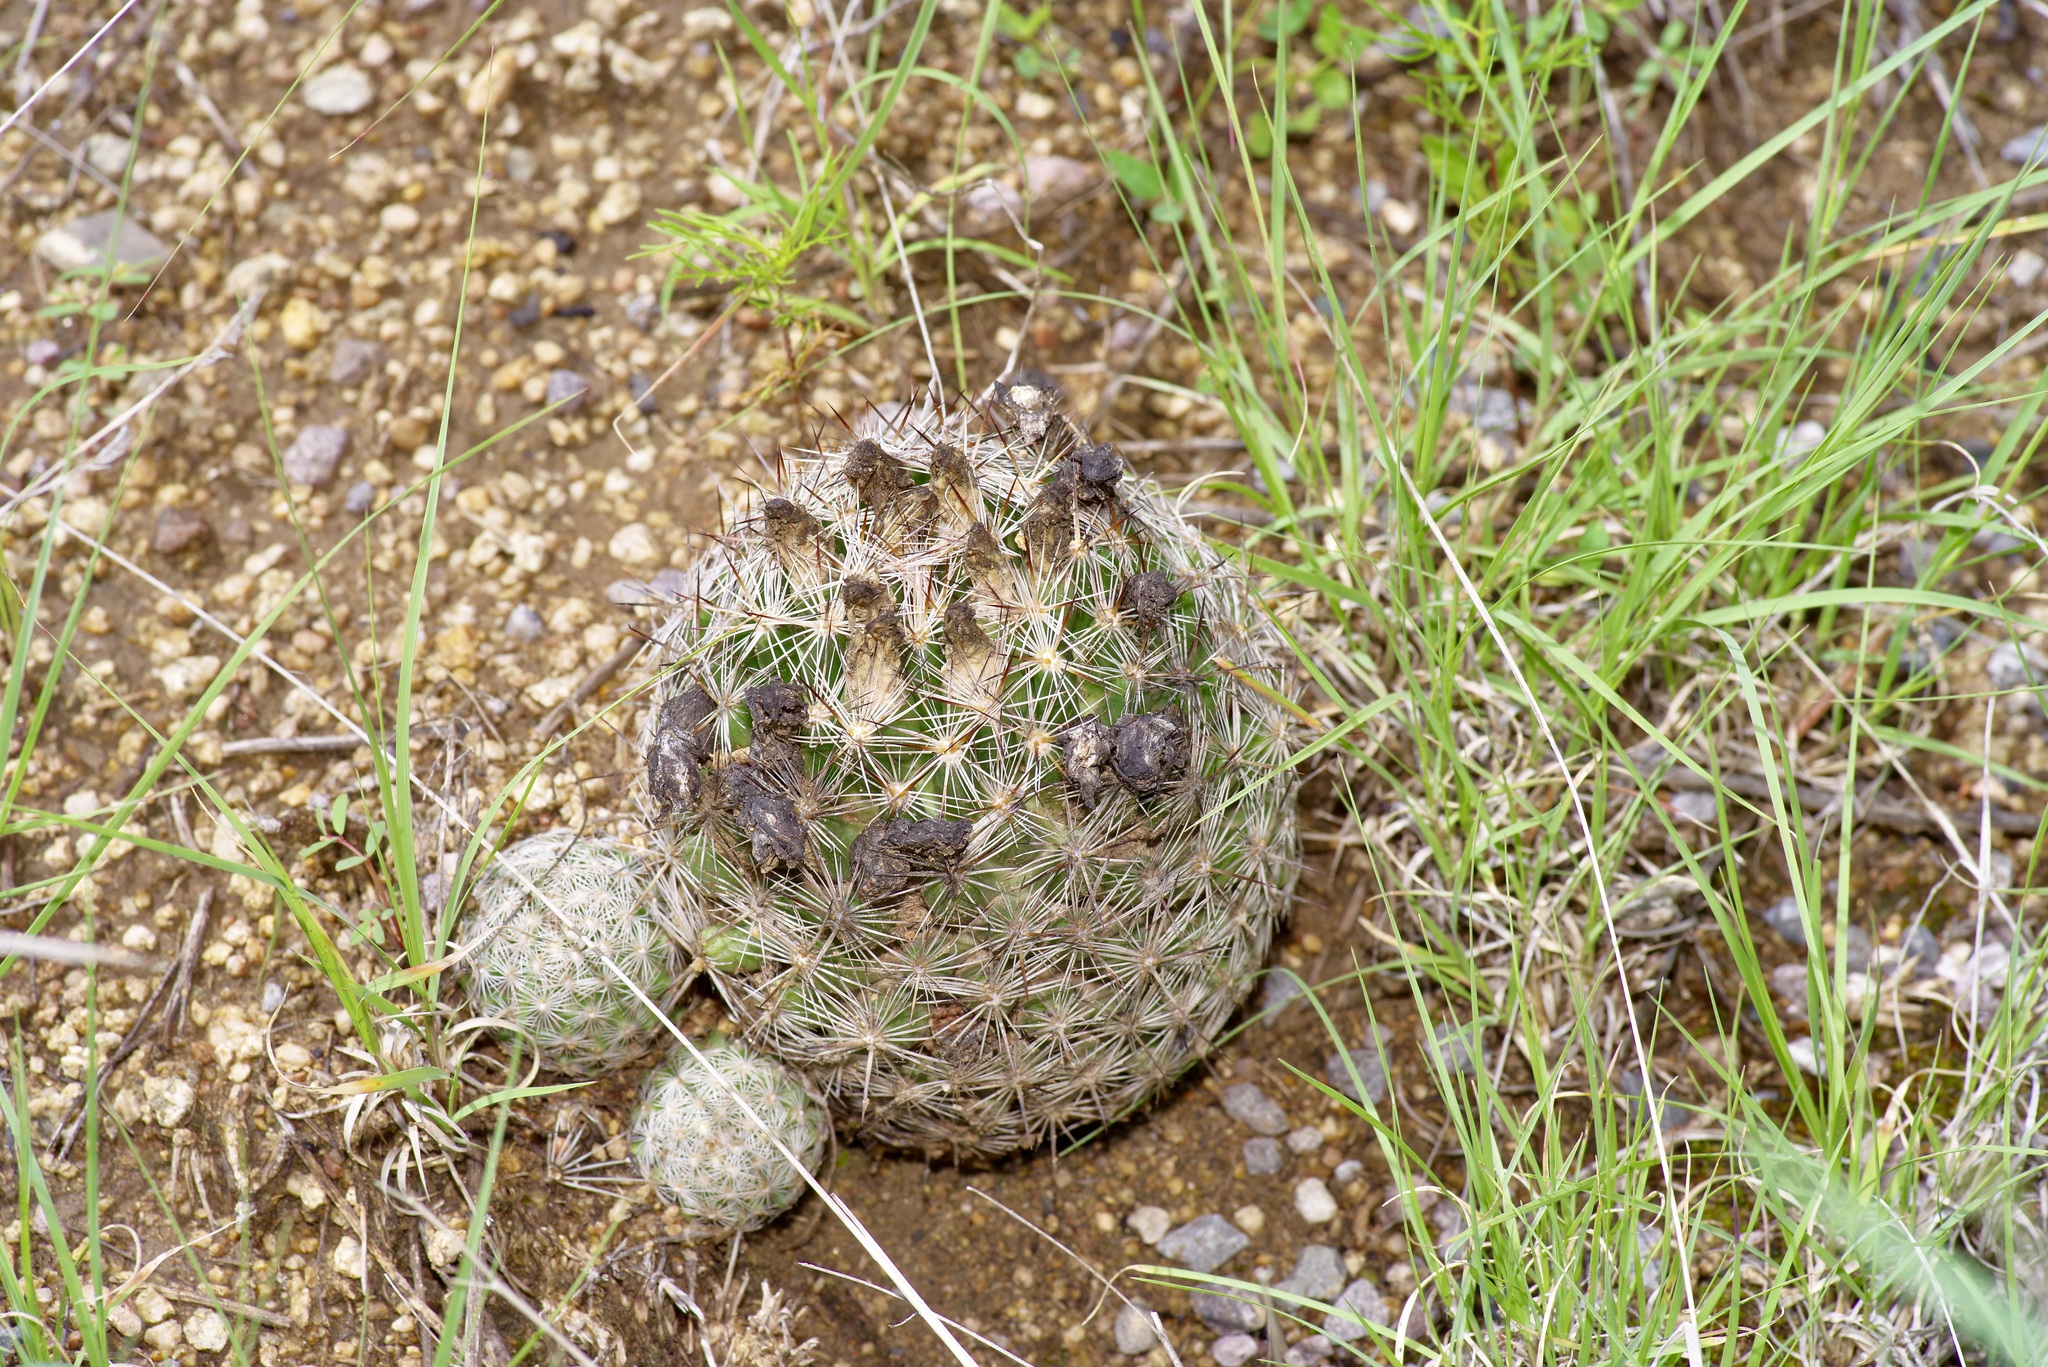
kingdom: Plantae
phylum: Tracheophyta
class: Magnoliopsida
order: Caryophyllales
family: Cactaceae
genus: Pelecyphora
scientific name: Pelecyphora vivipara
